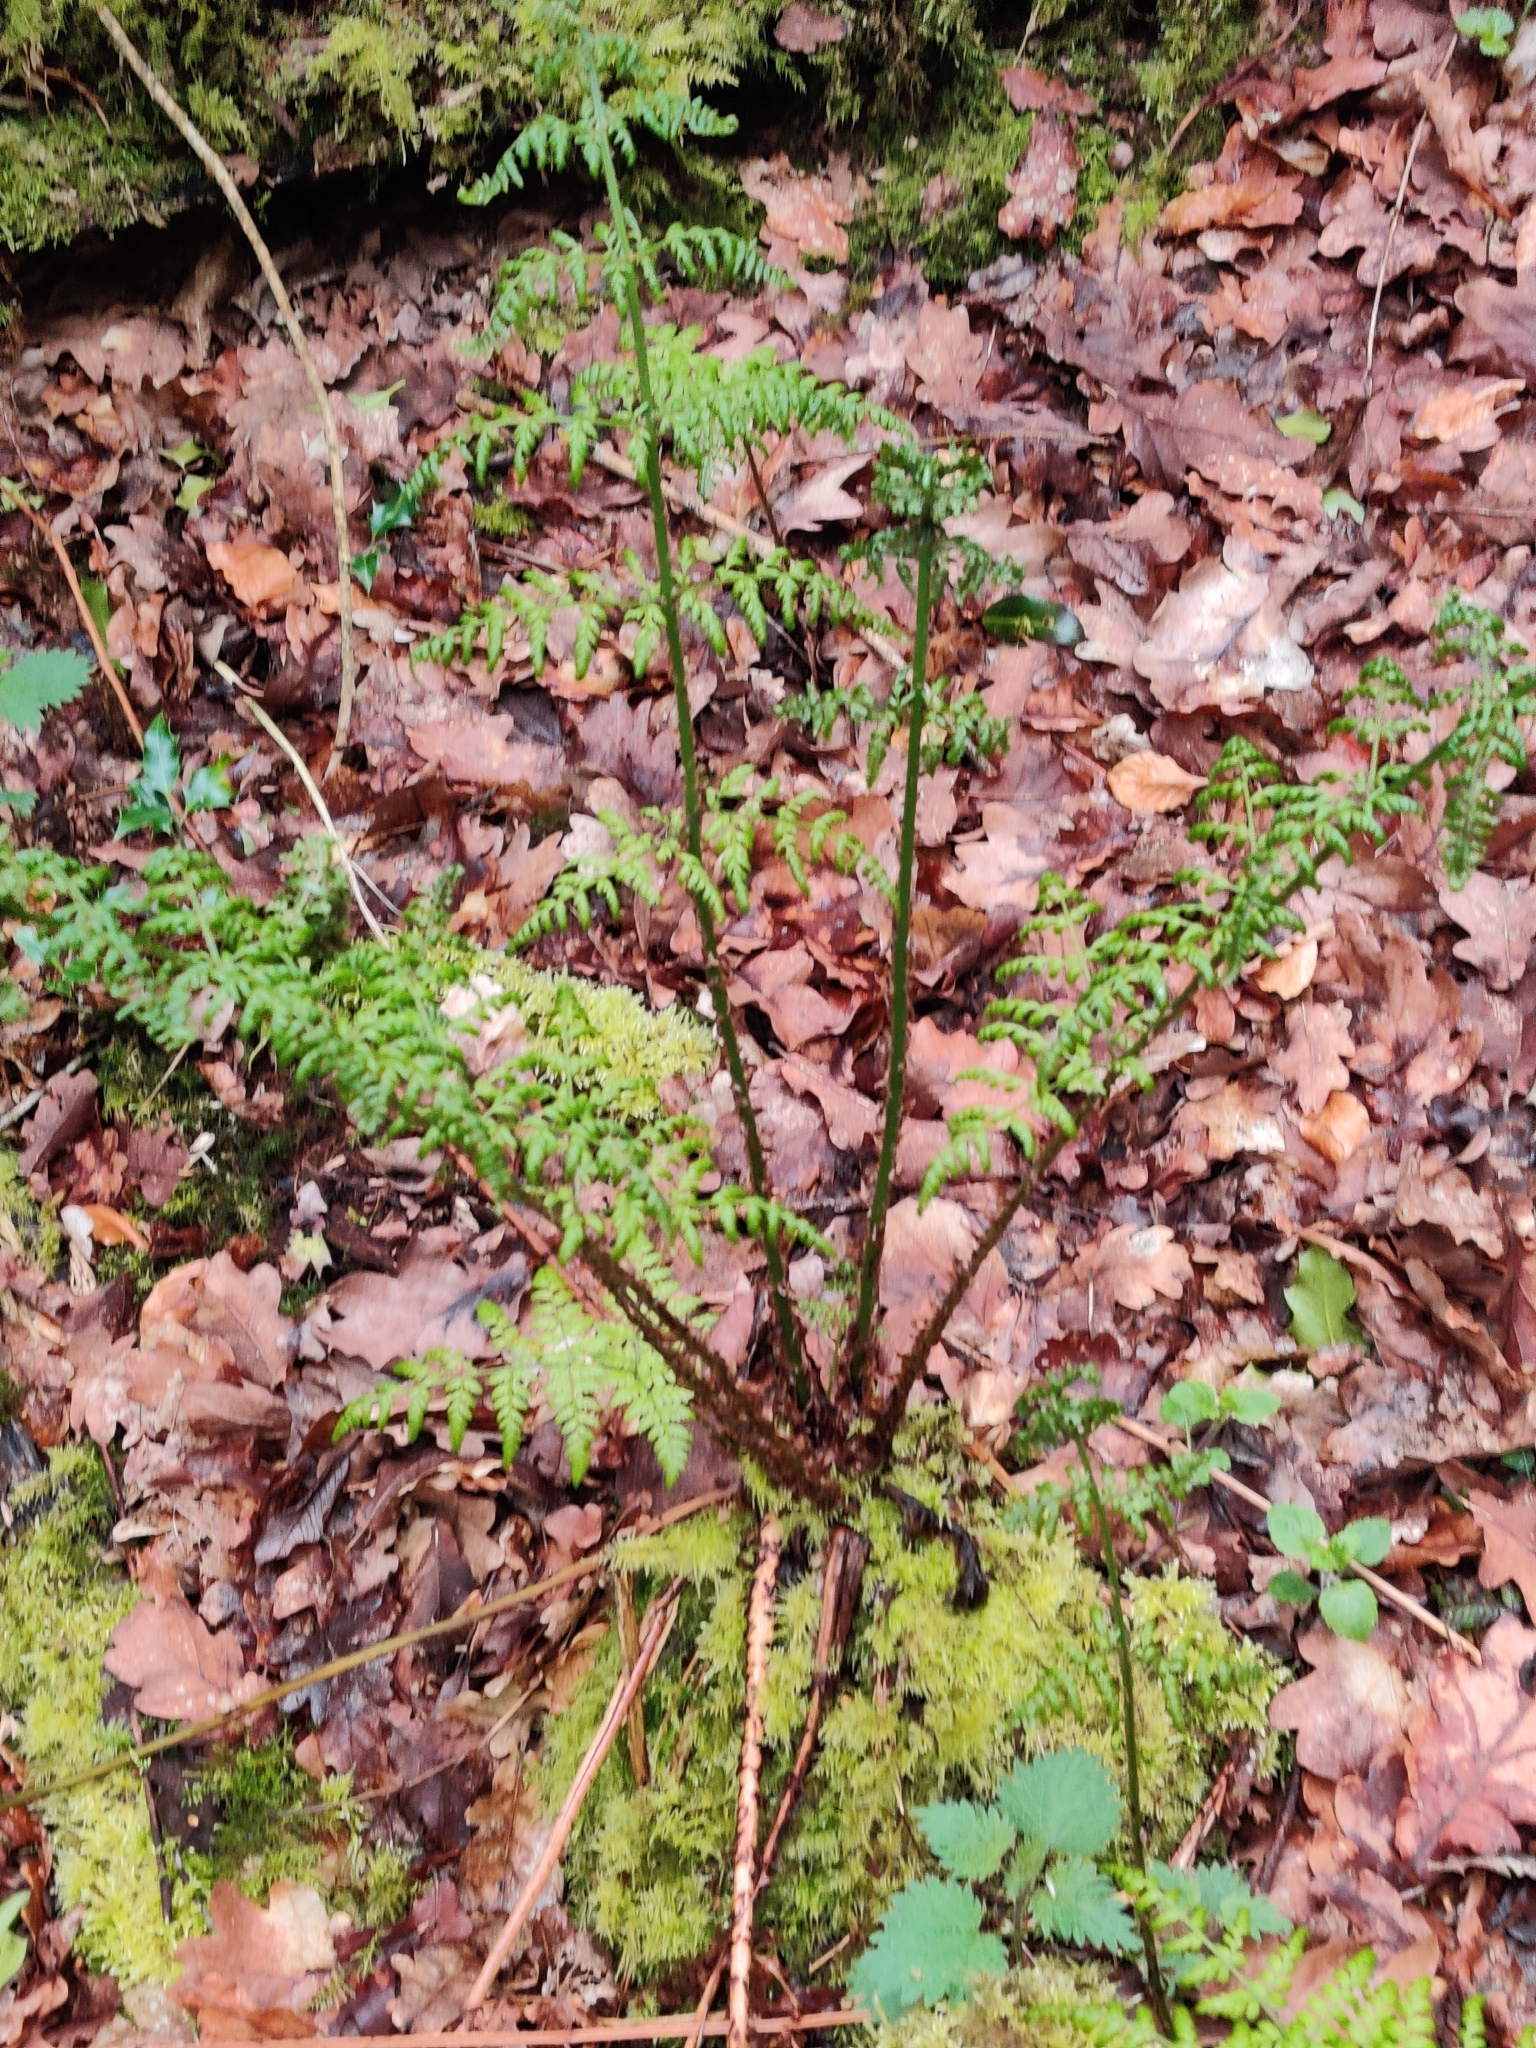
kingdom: Plantae
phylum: Tracheophyta
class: Polypodiopsida
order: Polypodiales
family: Dryopteridaceae
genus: Dryopteris
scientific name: Dryopteris dilatata
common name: Broad buckler-fern
